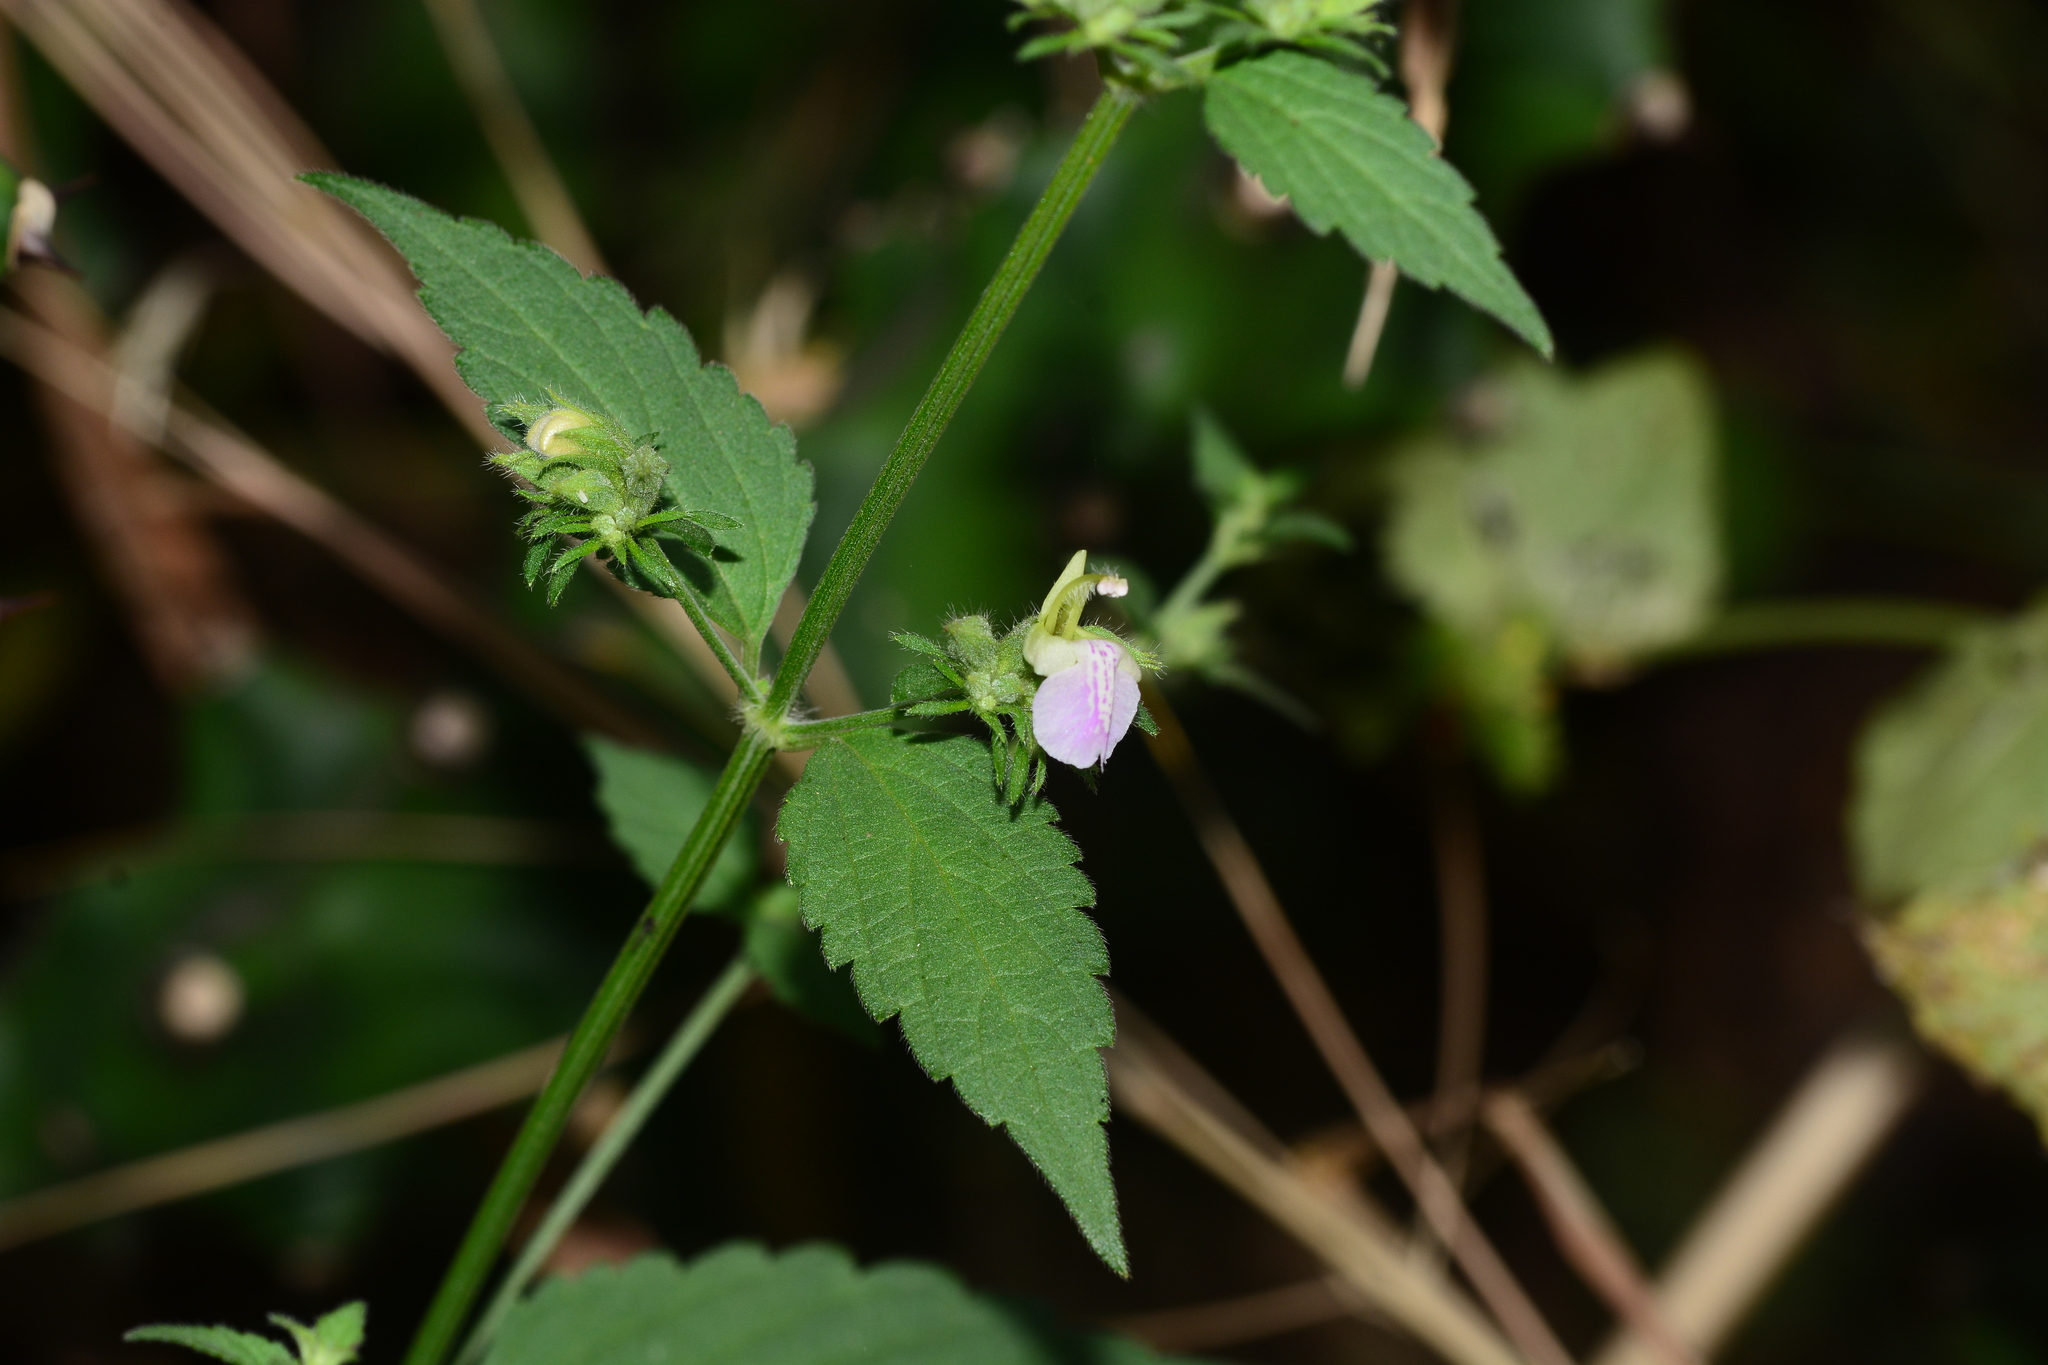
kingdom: Plantae
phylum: Tracheophyta
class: Magnoliopsida
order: Lamiales
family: Lamiaceae
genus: Anisomeles
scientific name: Anisomeles heyneana
